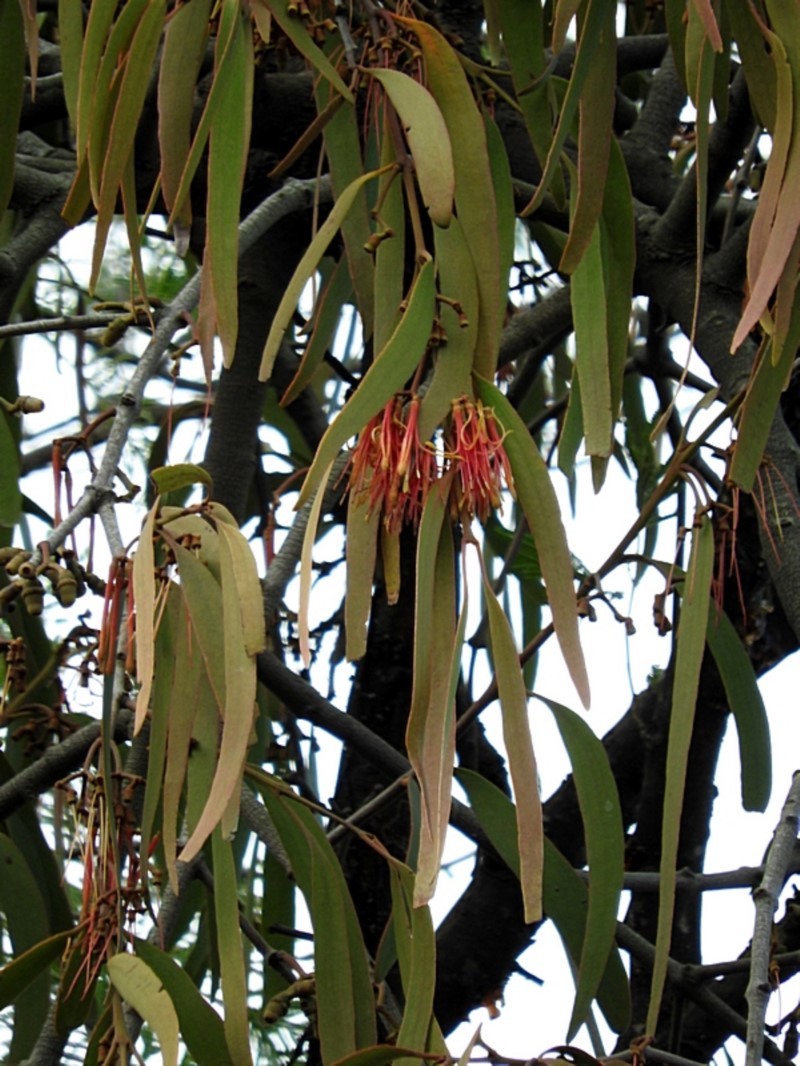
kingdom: Plantae
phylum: Tracheophyta
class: Magnoliopsida
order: Santalales
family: Loranthaceae
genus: Amyema
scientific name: Amyema pendula
